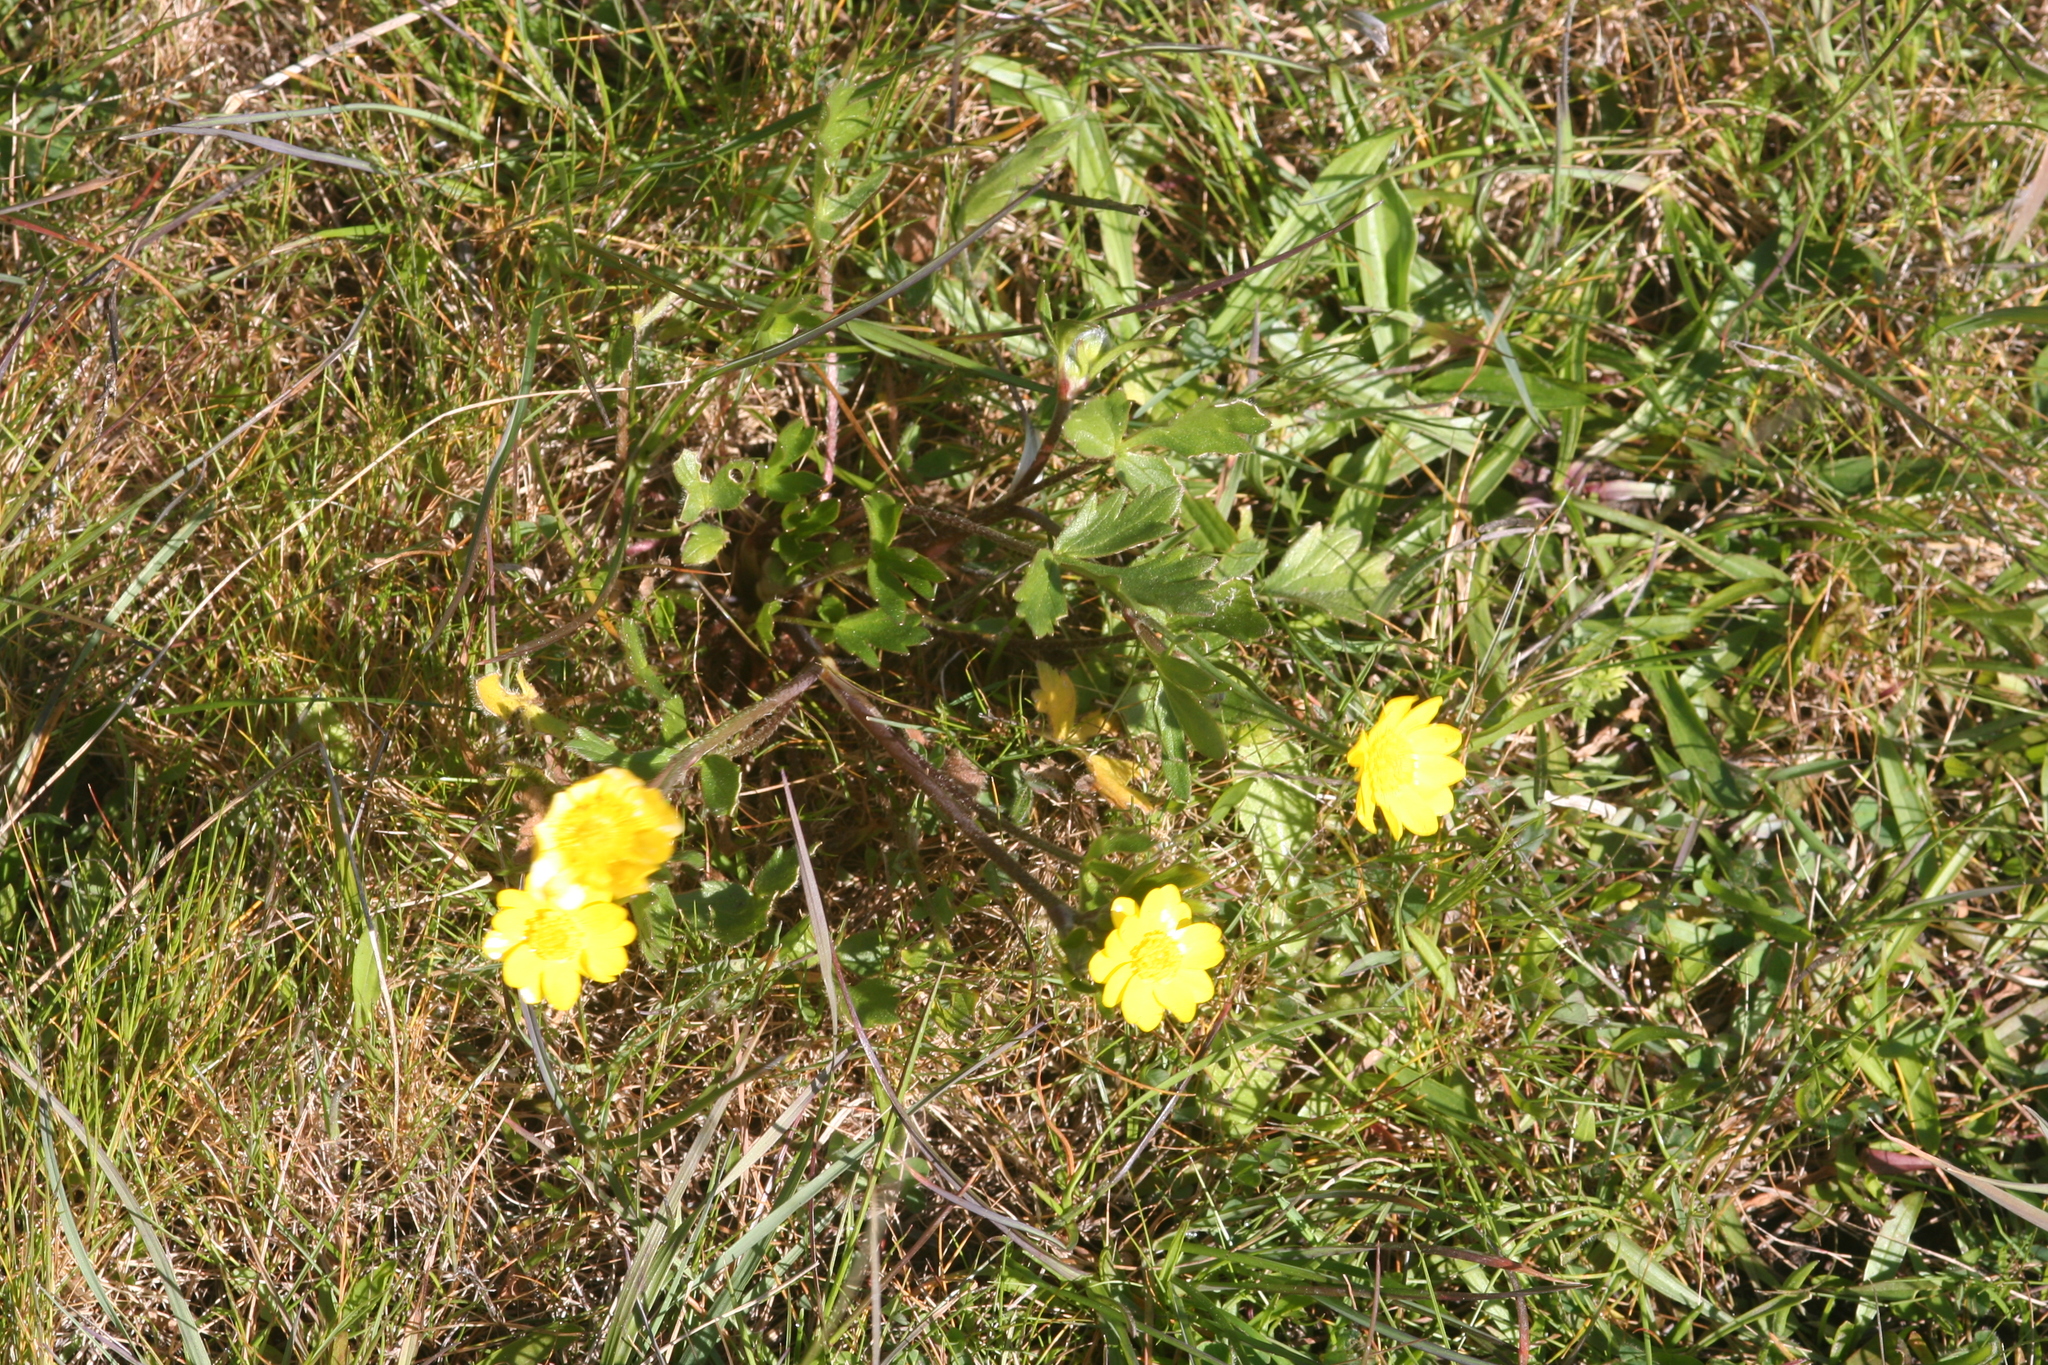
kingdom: Plantae
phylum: Tracheophyta
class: Magnoliopsida
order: Ranunculales
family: Ranunculaceae
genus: Ranunculus
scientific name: Ranunculus californicus
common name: California buttercup
